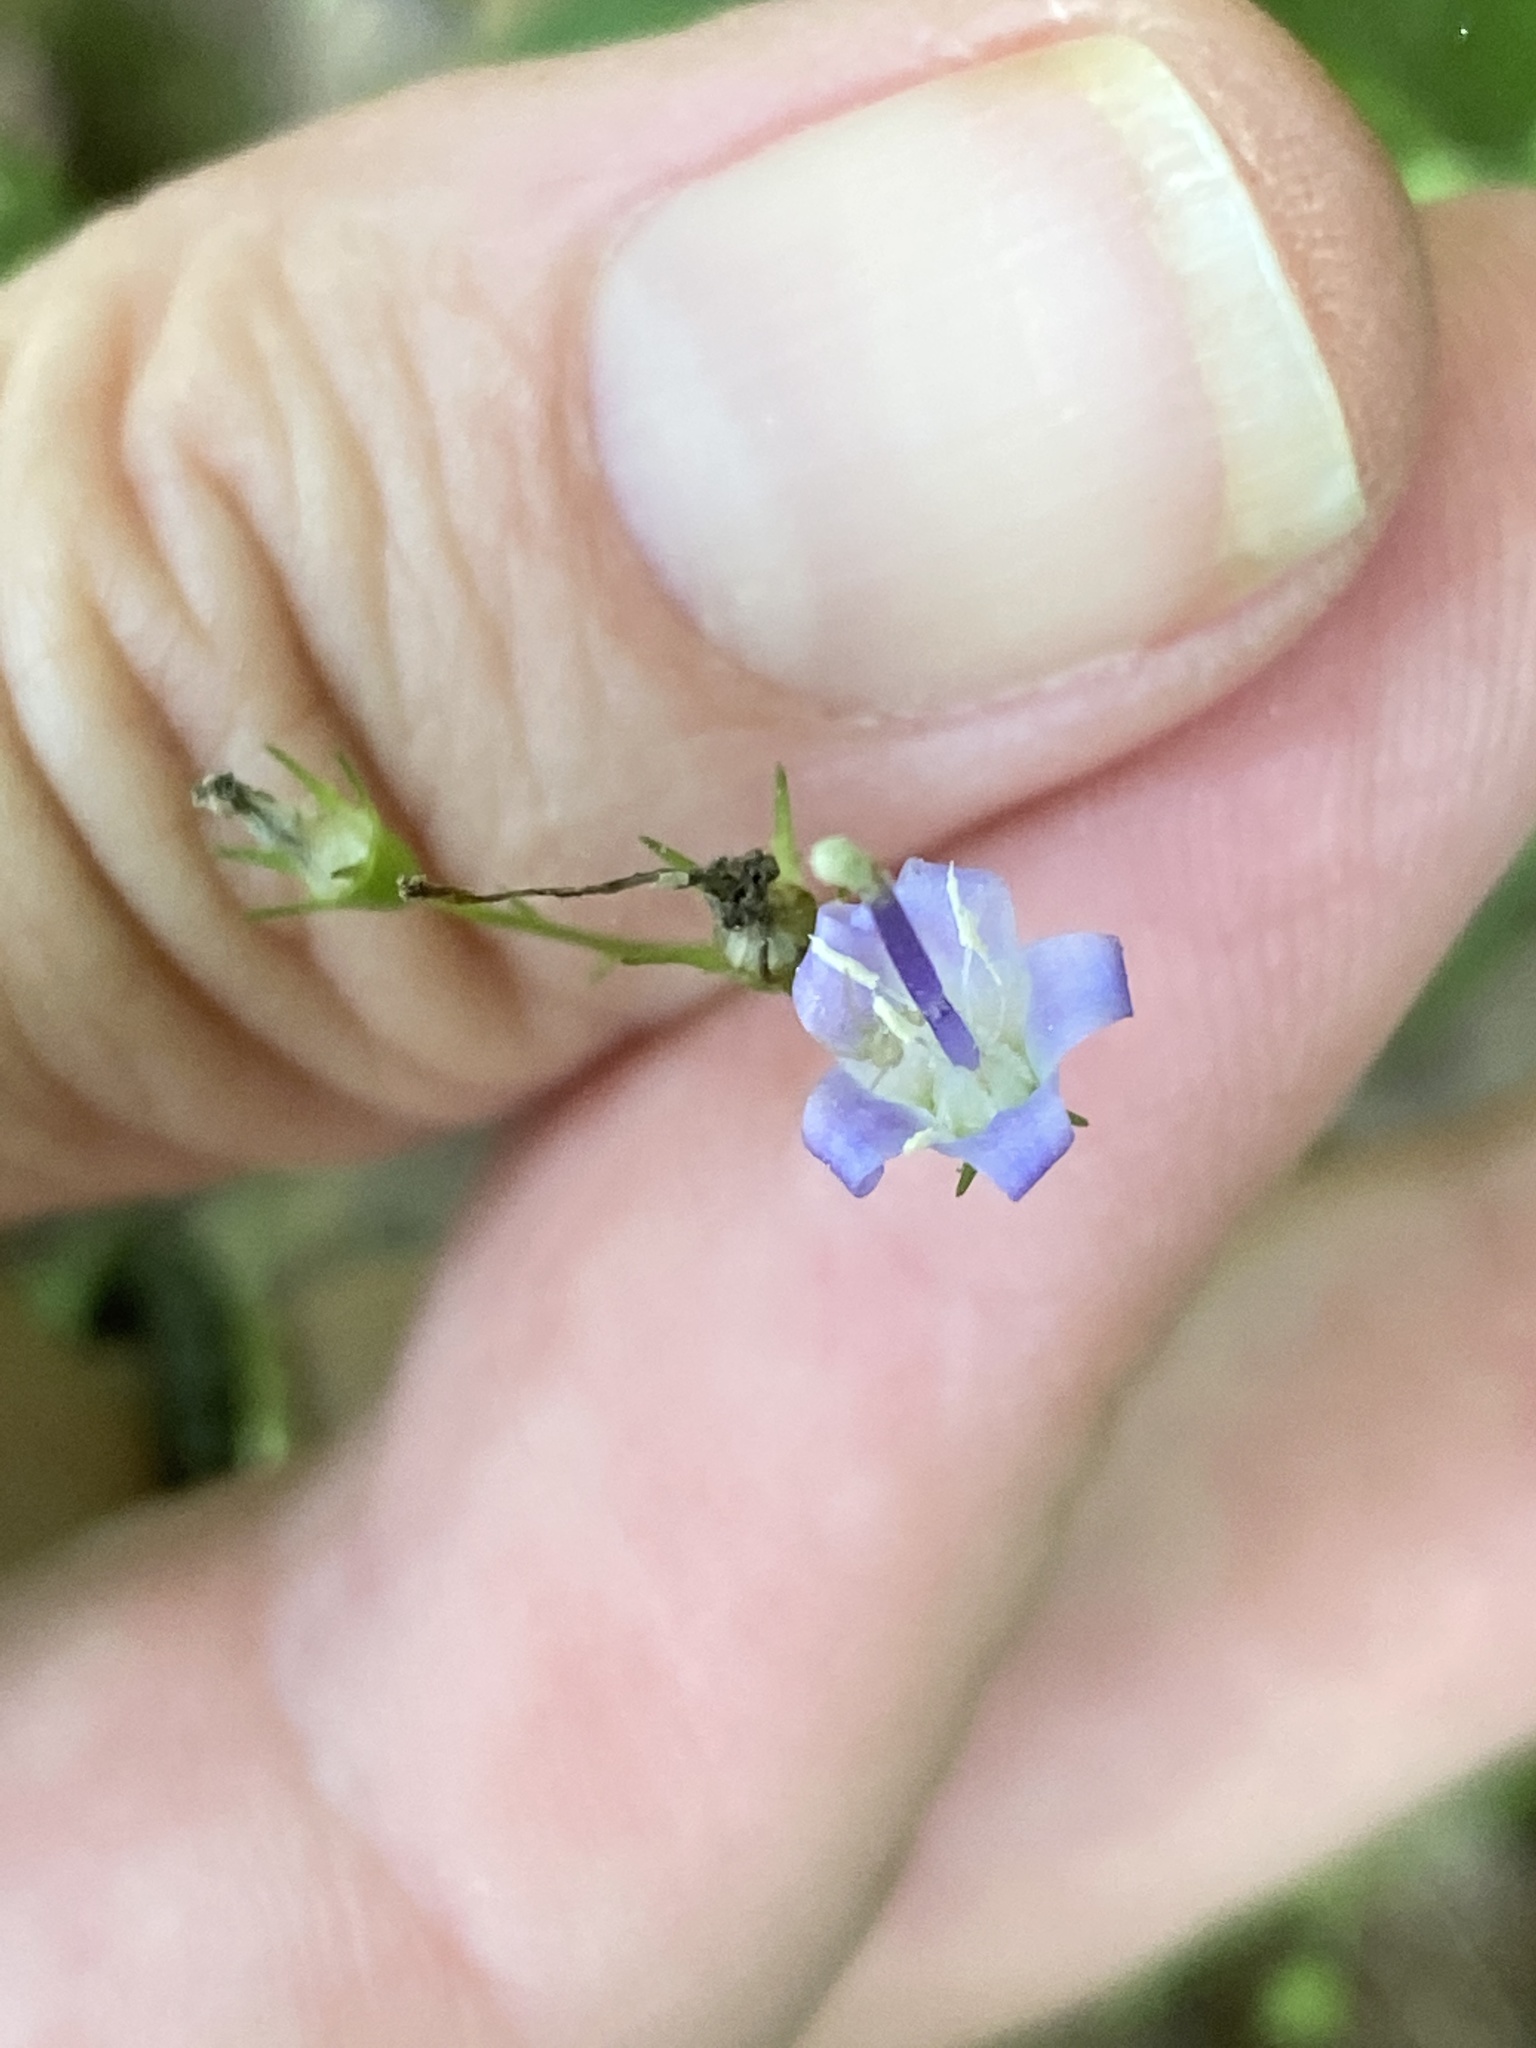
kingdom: Plantae
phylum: Tracheophyta
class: Magnoliopsida
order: Asterales
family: Campanulaceae
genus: Campanula
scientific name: Campanula divaricata
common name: Appalachian bellflower
